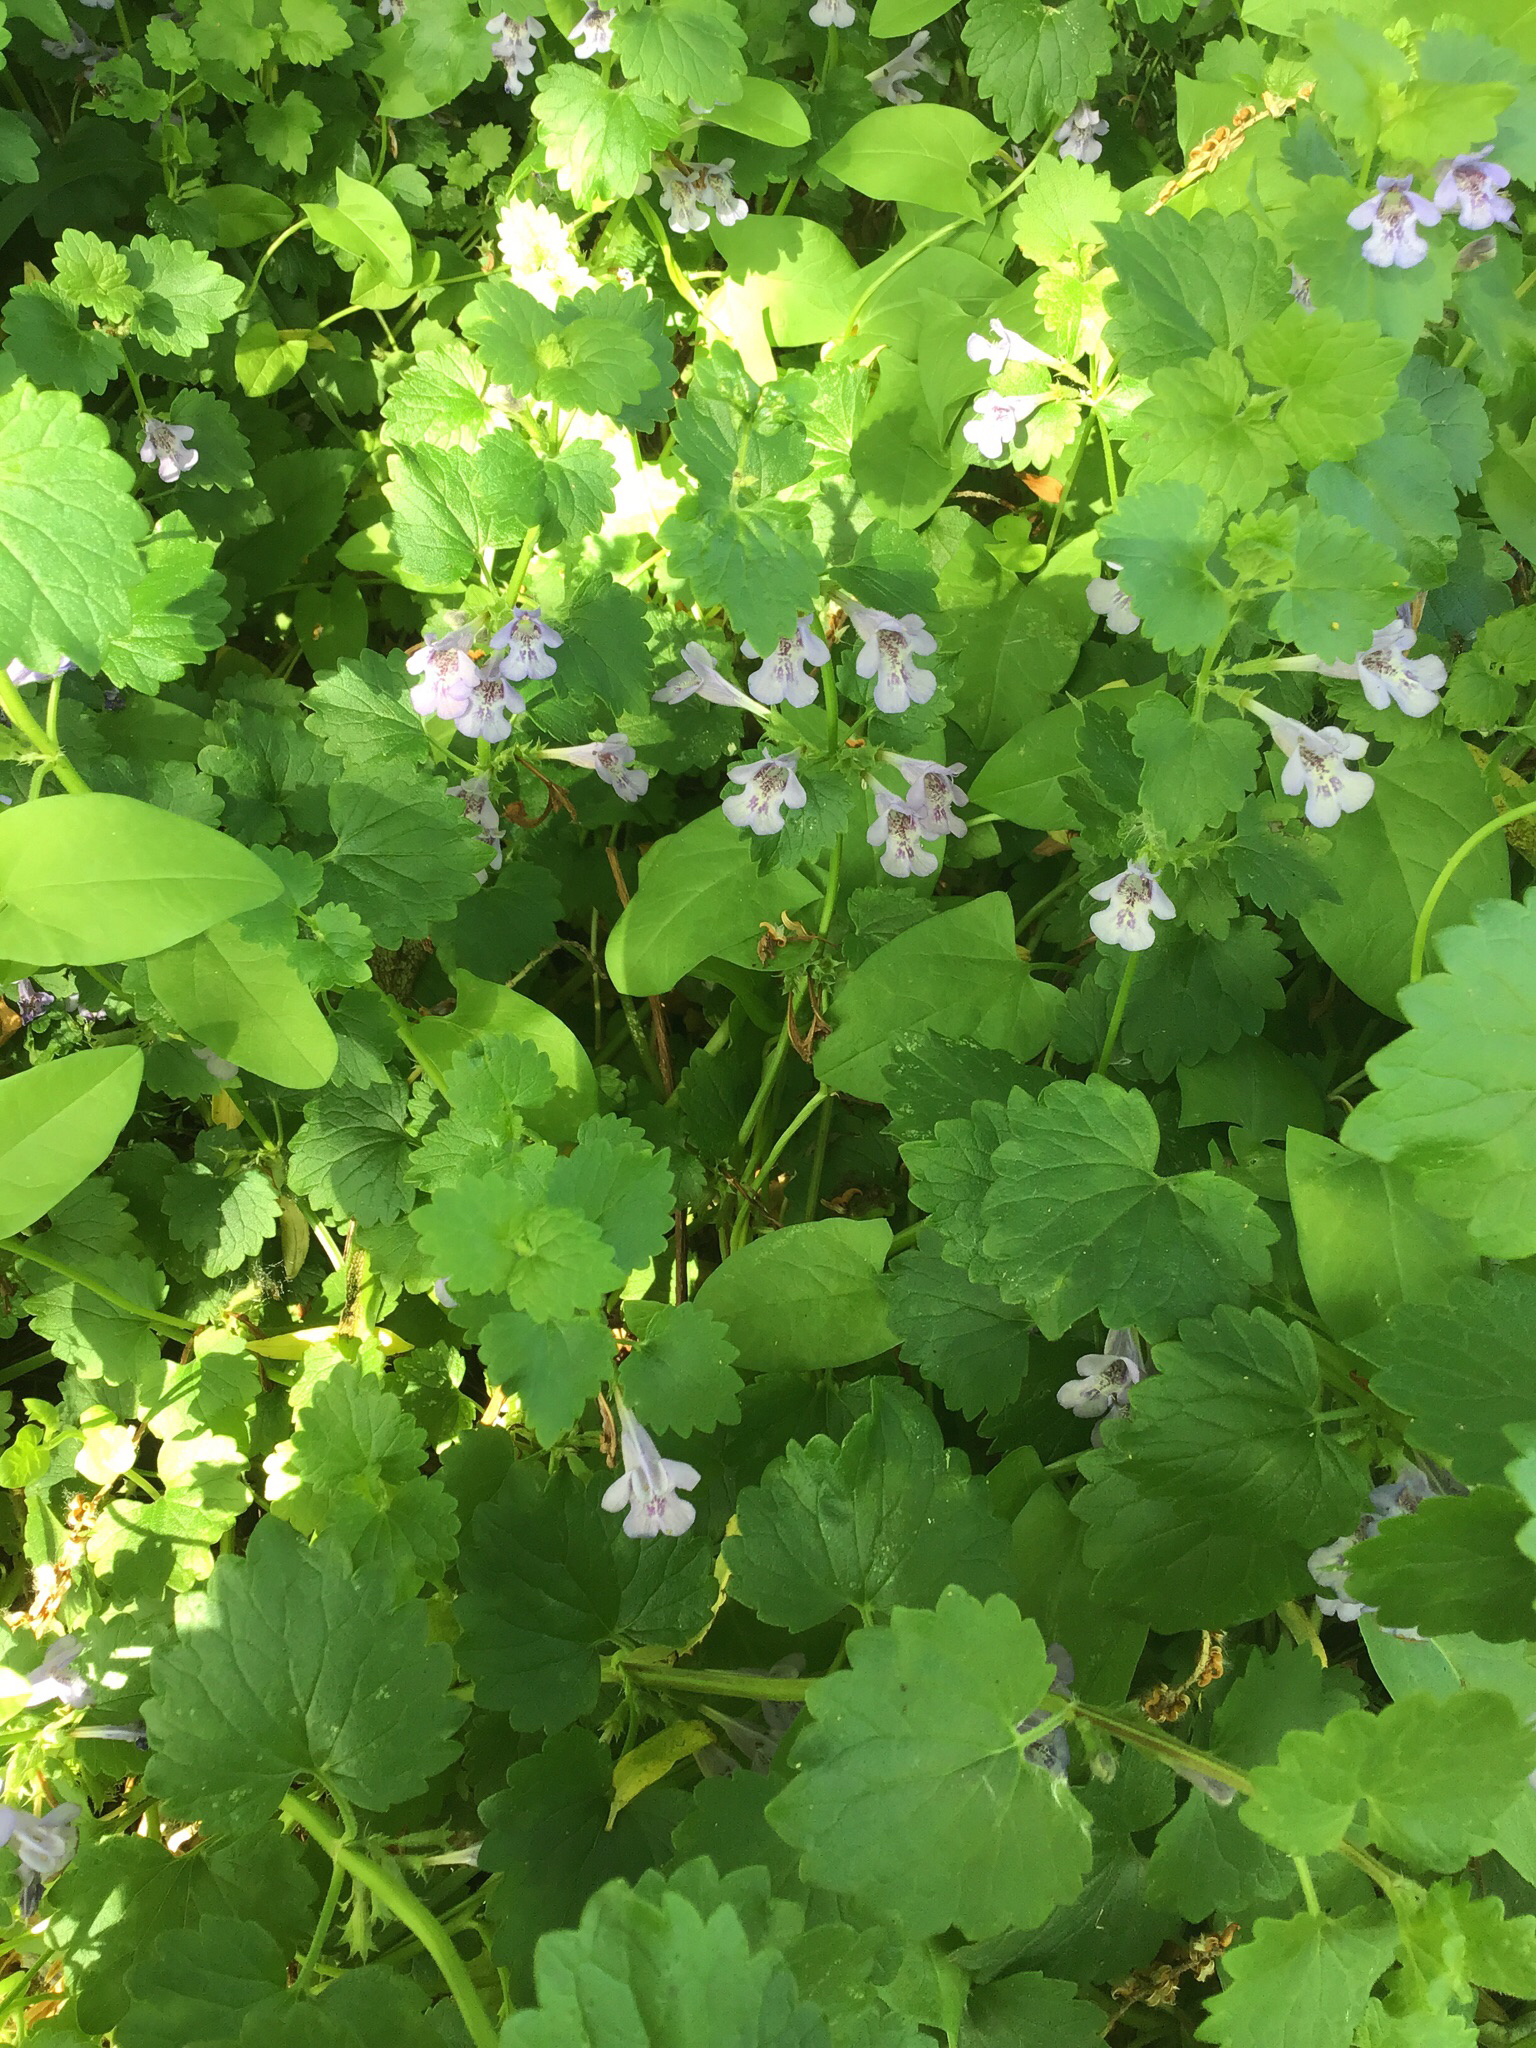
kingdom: Plantae
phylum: Tracheophyta
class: Magnoliopsida
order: Lamiales
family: Lamiaceae
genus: Glechoma
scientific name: Glechoma hederacea
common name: Ground ivy
